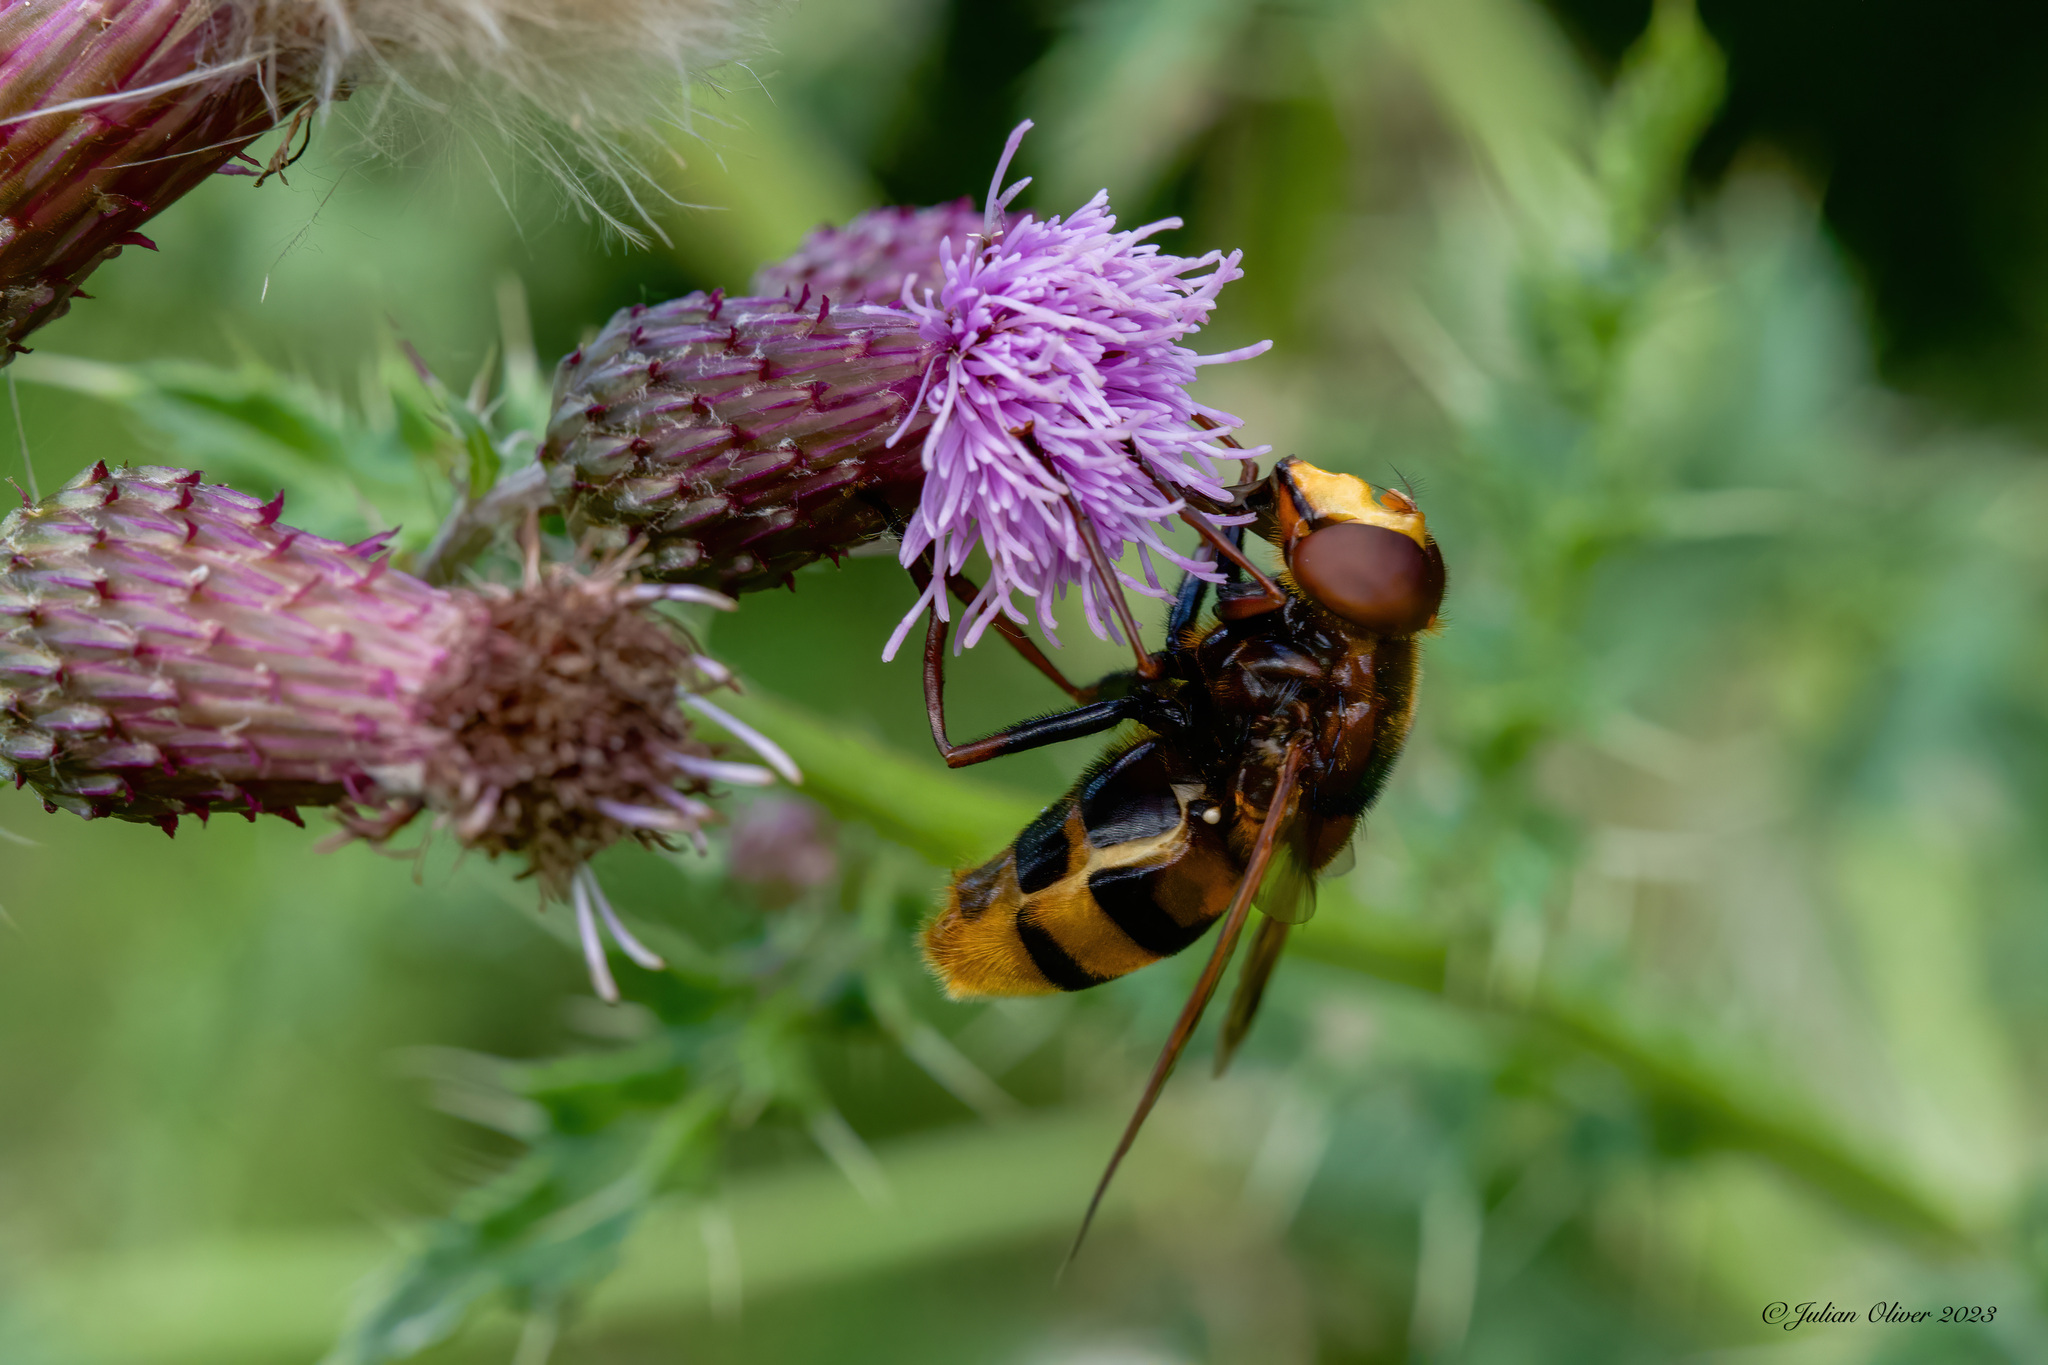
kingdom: Animalia
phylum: Arthropoda
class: Insecta
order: Diptera
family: Syrphidae
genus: Volucella
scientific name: Volucella zonaria
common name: Hornet hoverfly
